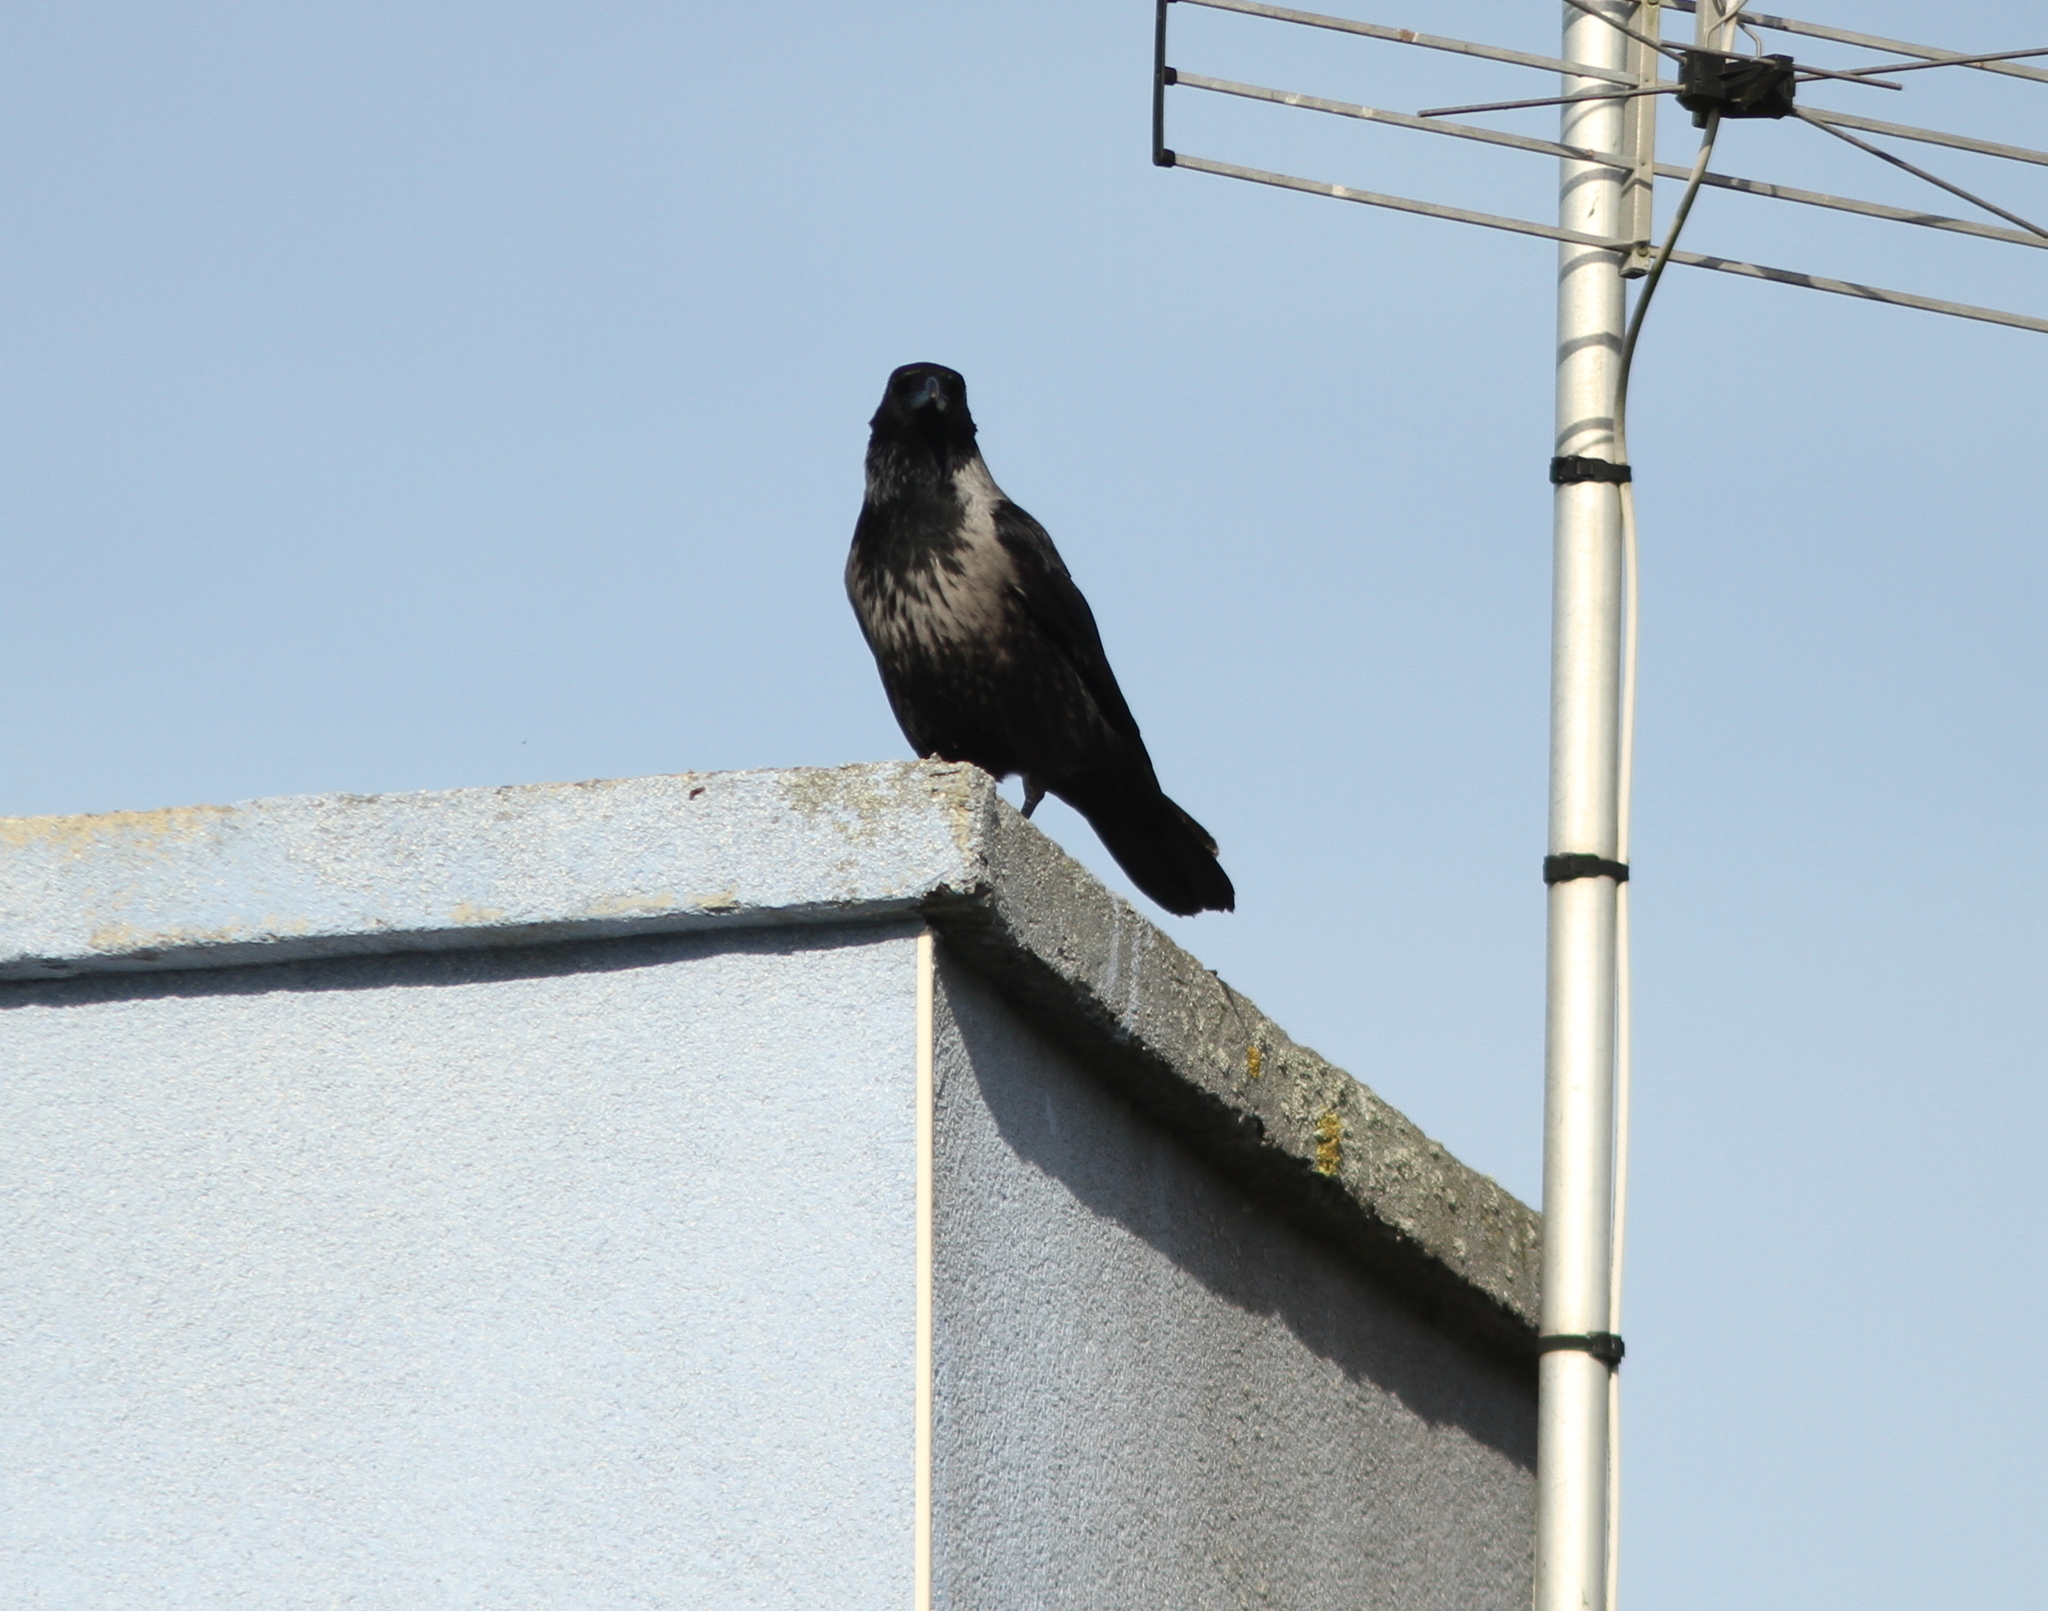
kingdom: Animalia
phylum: Chordata
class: Aves
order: Passeriformes
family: Corvidae
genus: Corvus
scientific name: Corvus
